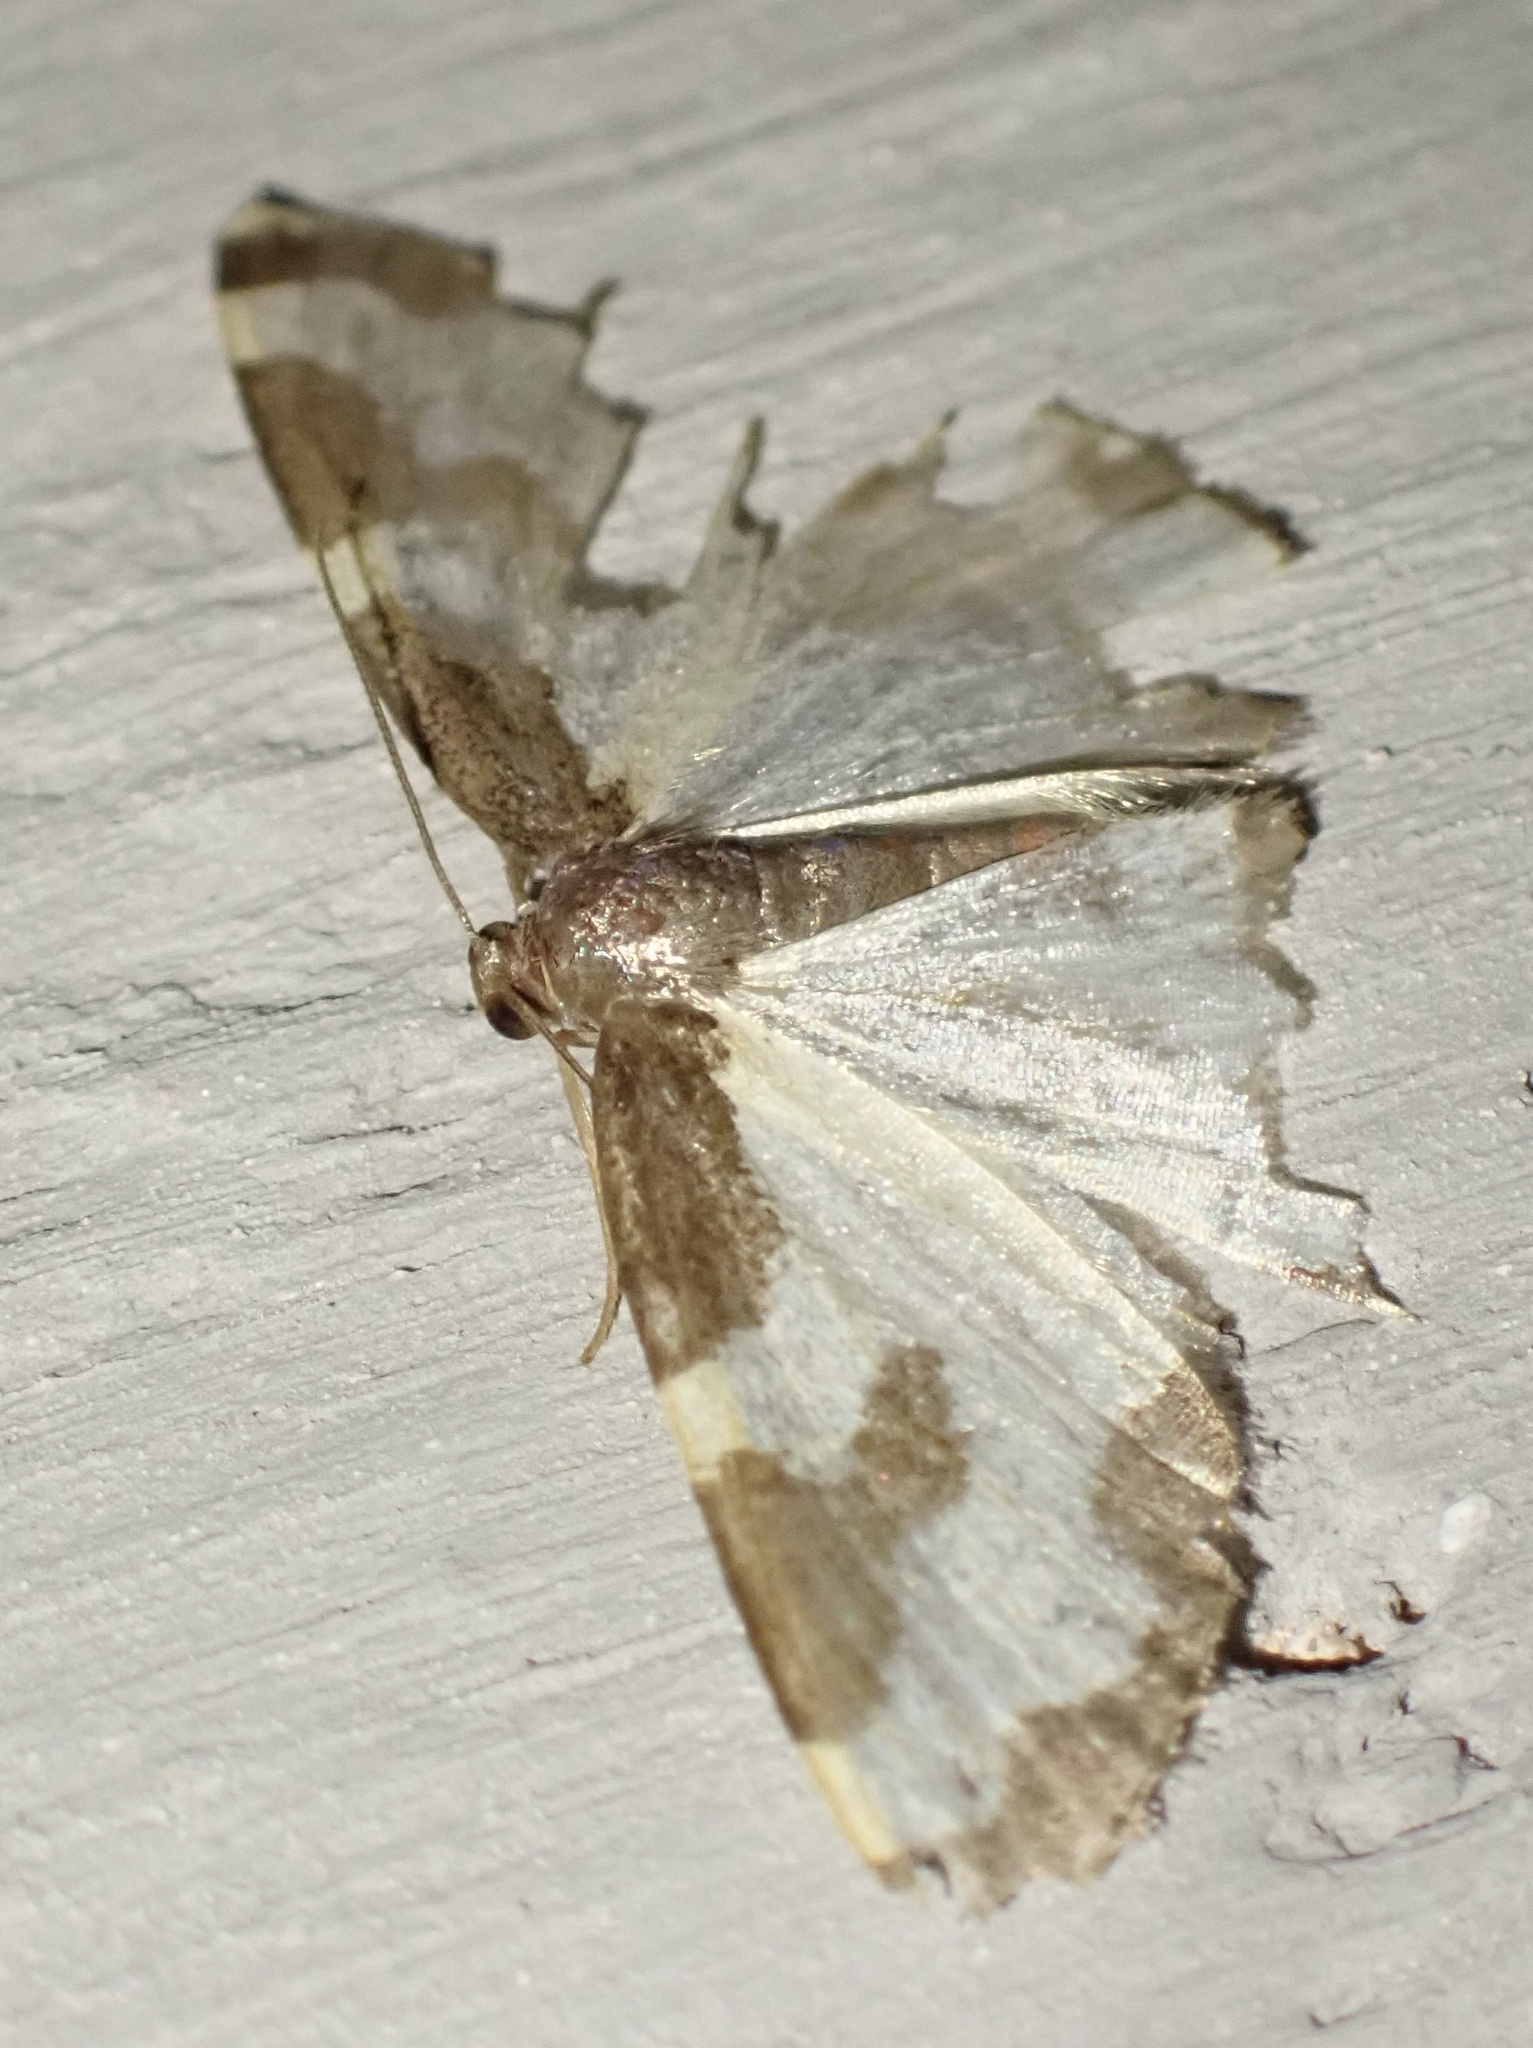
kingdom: Animalia
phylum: Arthropoda
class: Insecta
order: Lepidoptera
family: Geometridae
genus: Lomaspilis
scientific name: Lomaspilis marginata
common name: Clouded border
